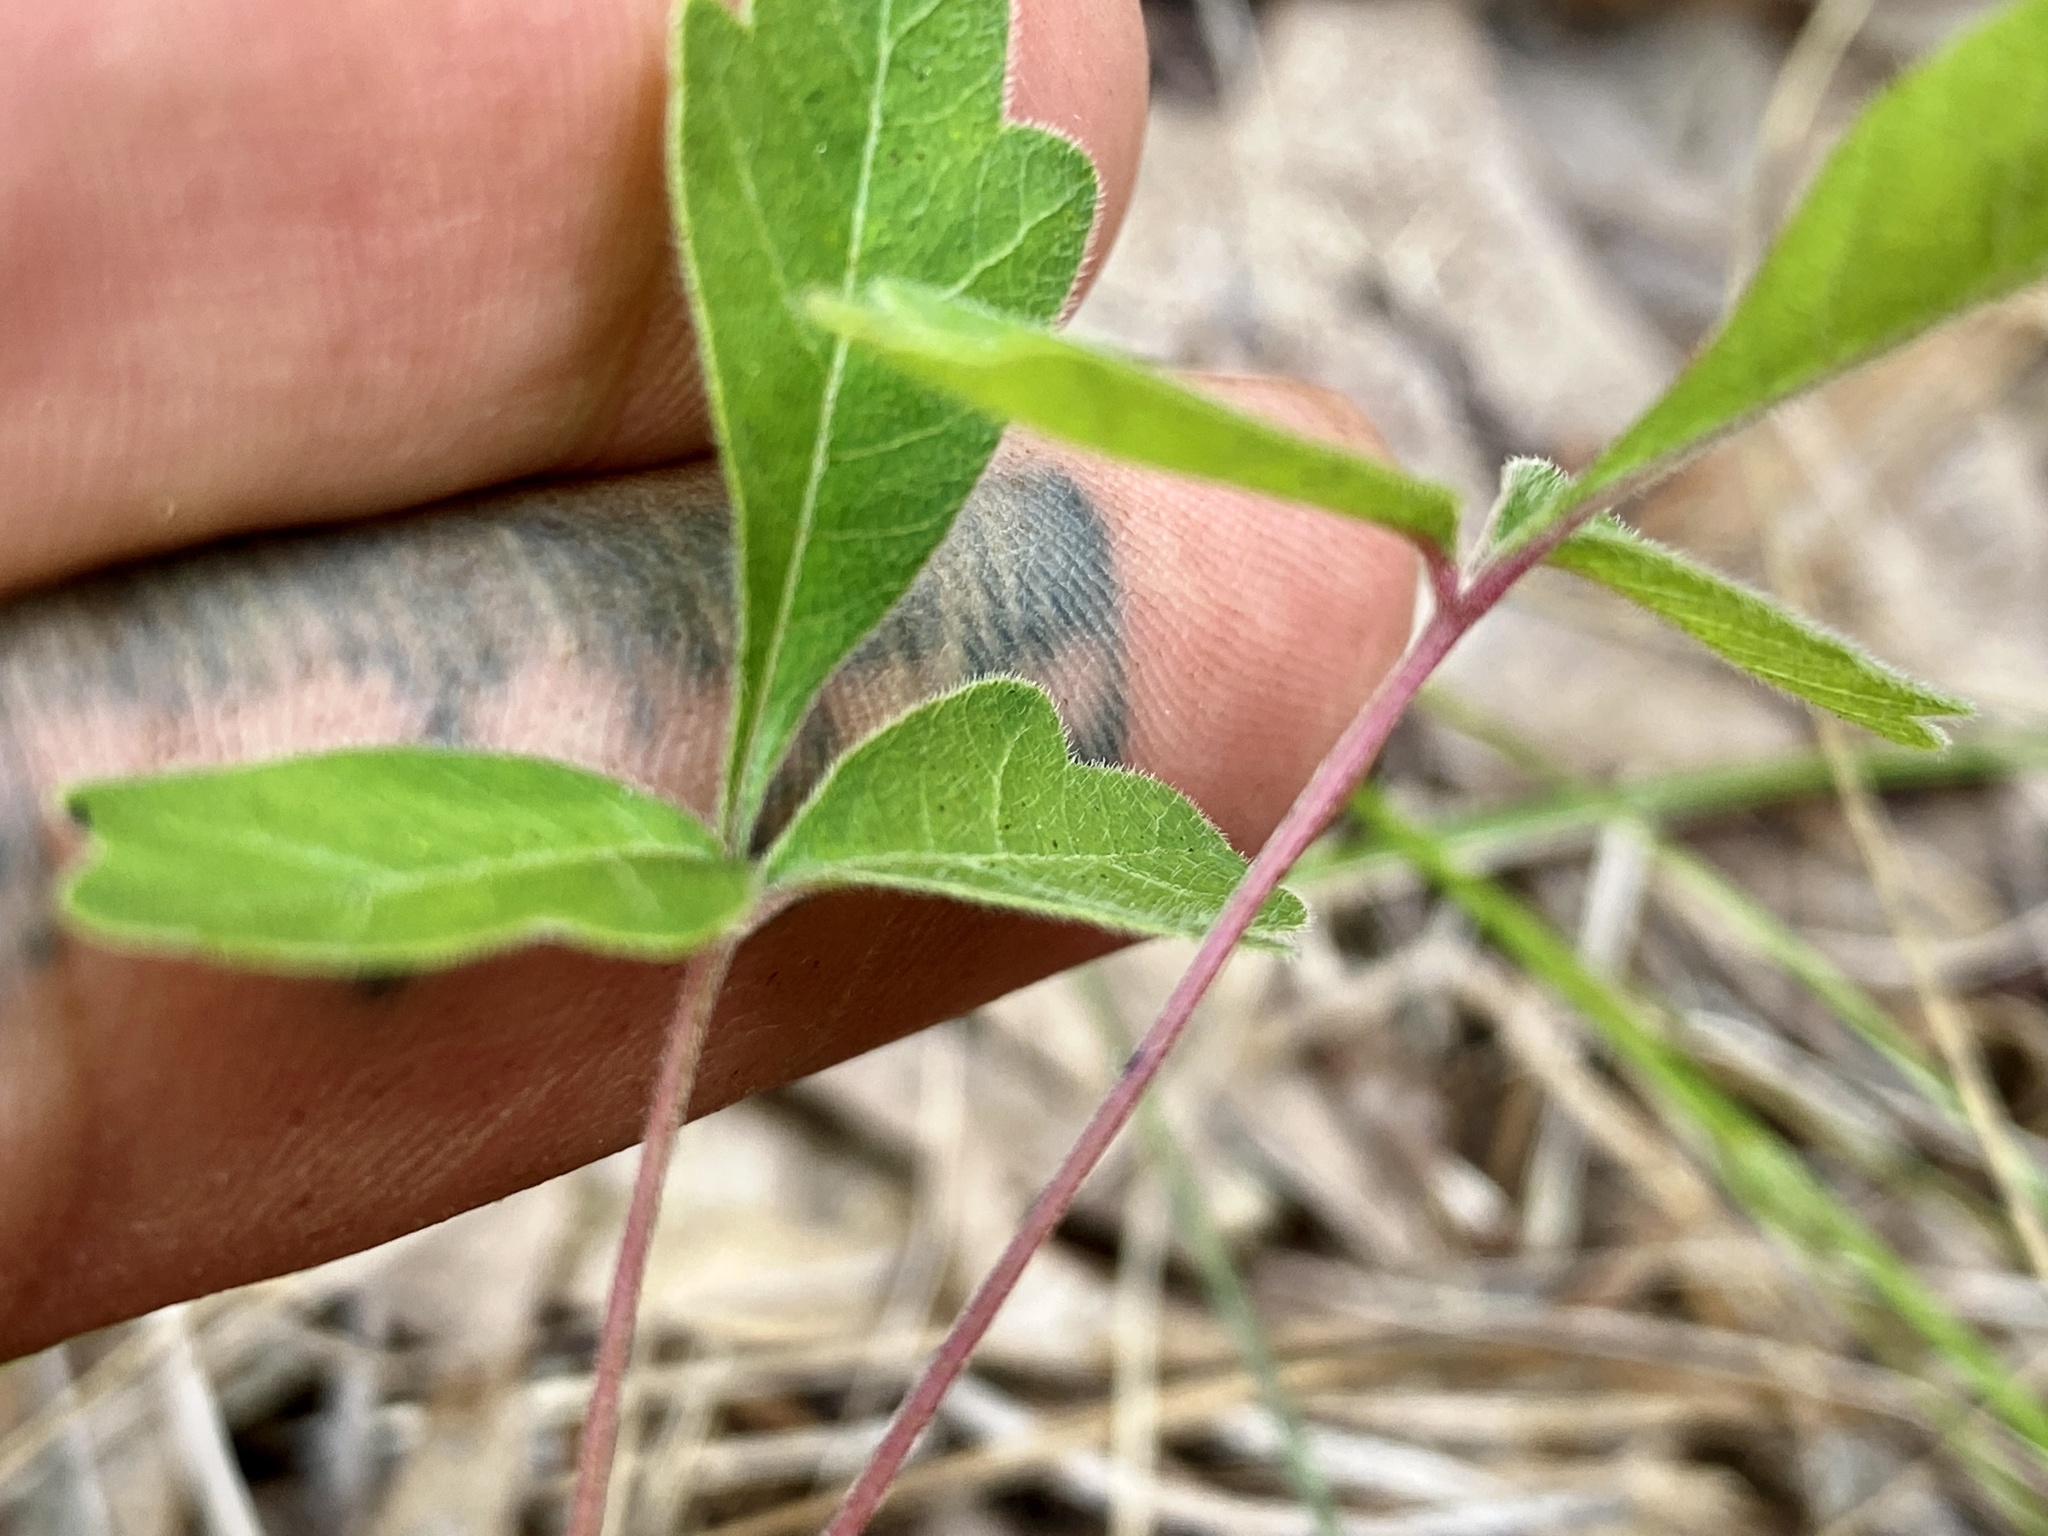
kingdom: Plantae
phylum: Tracheophyta
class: Magnoliopsida
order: Sapindales
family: Anacardiaceae
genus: Toxicodendron
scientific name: Toxicodendron pubescens
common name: Eastern poison-oak
